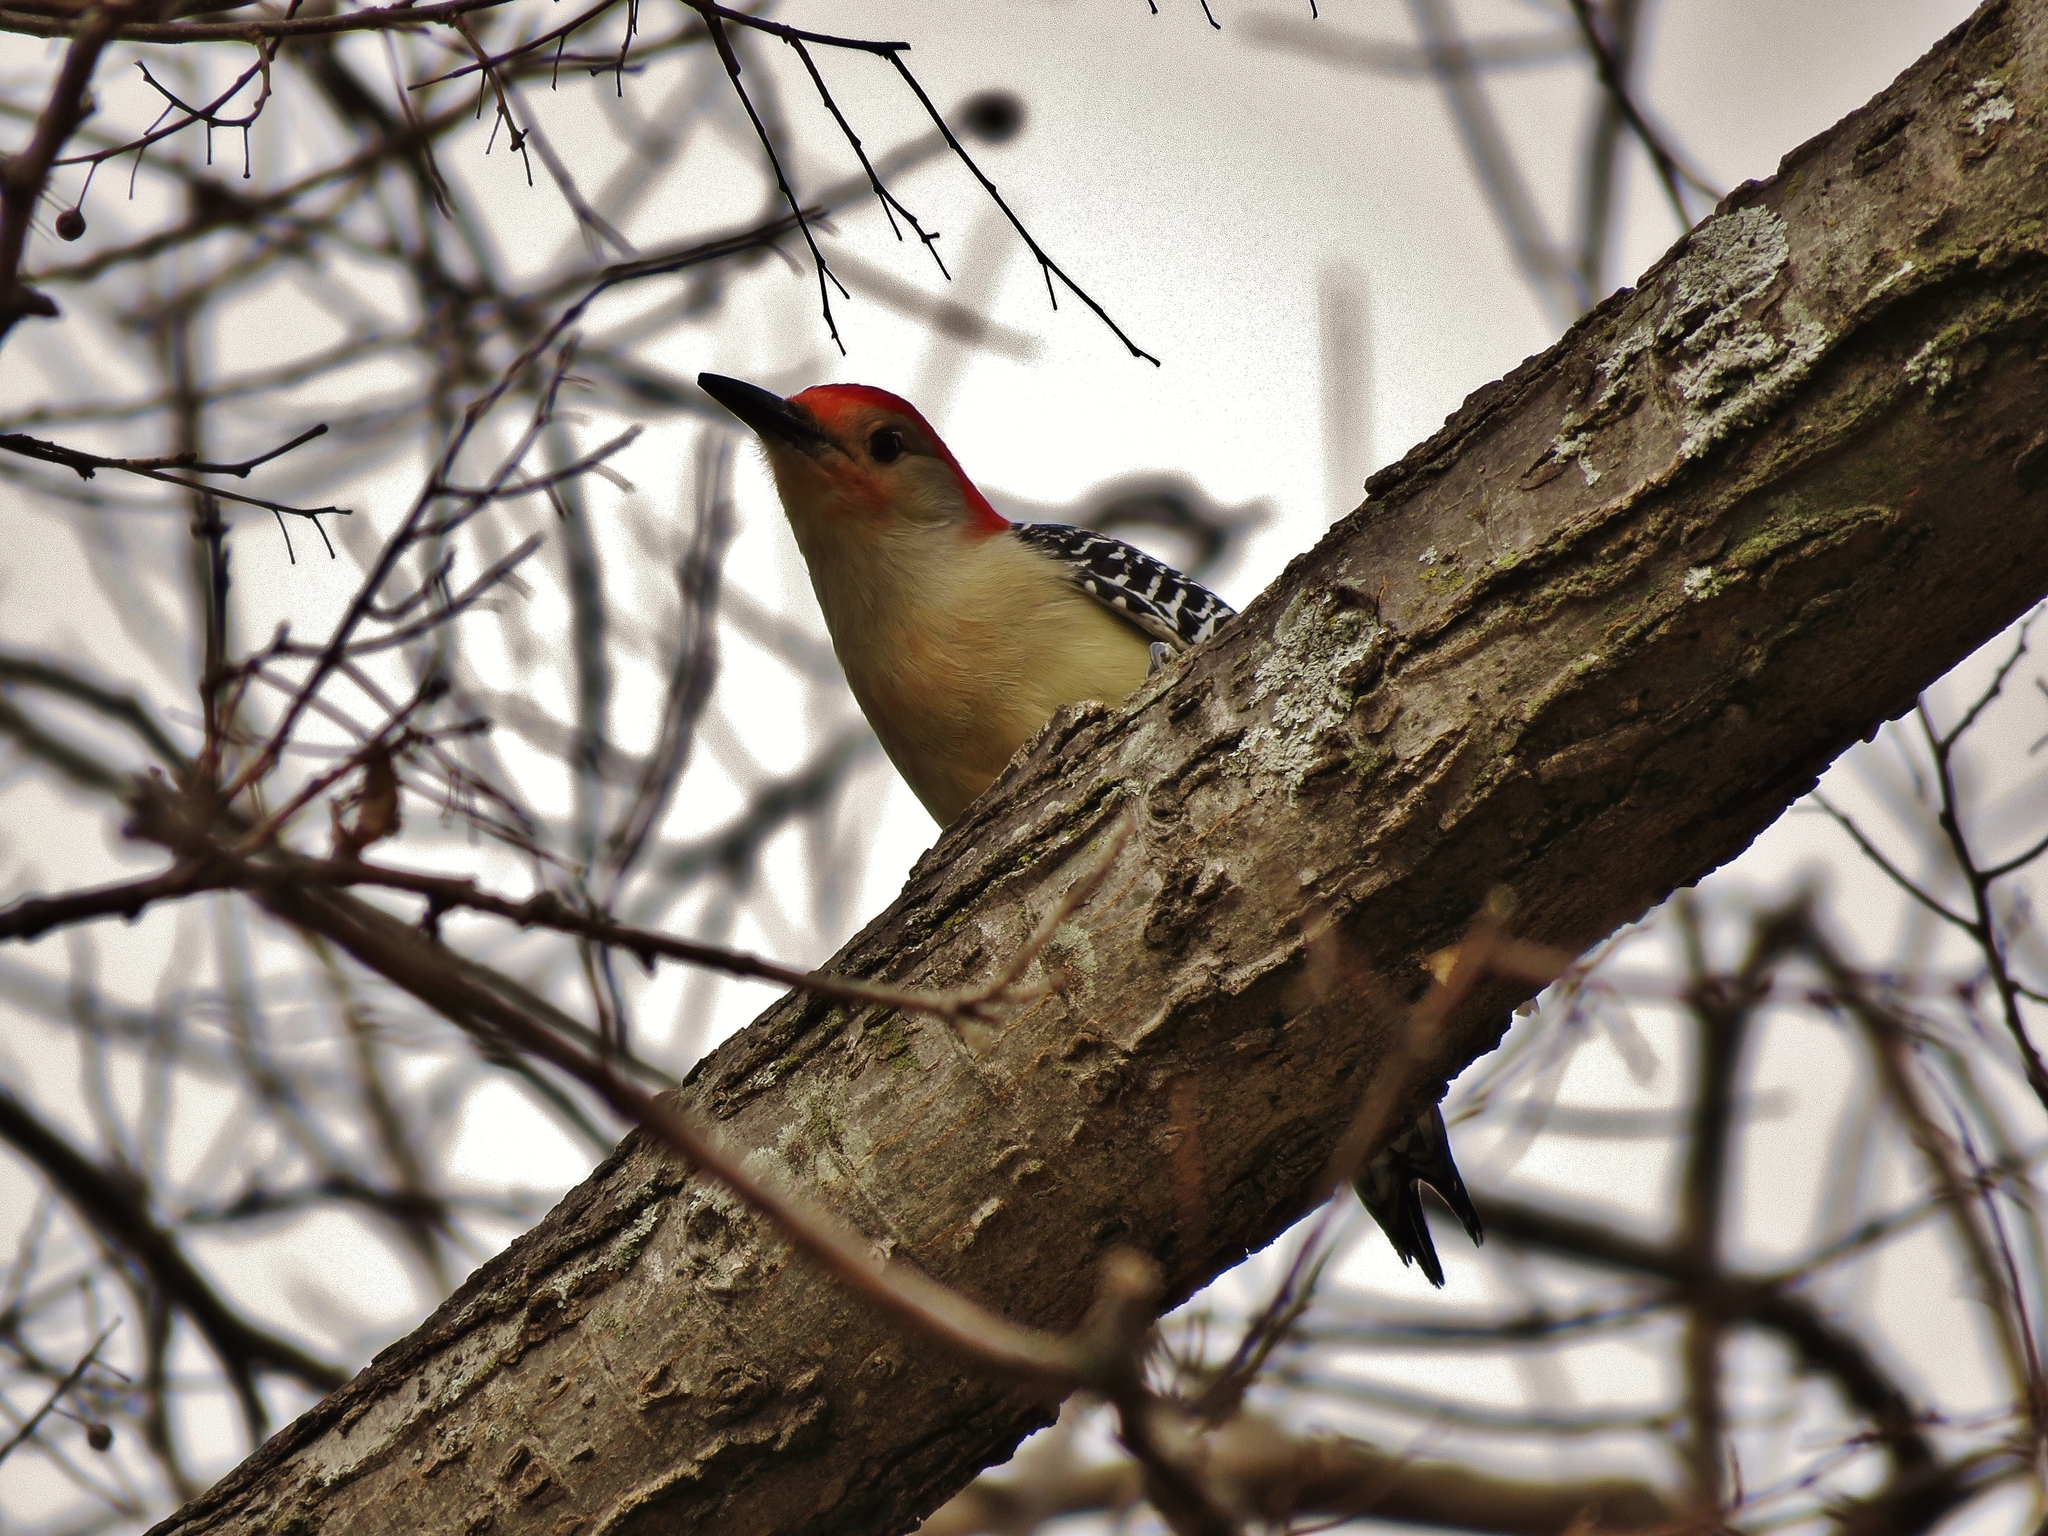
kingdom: Animalia
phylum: Chordata
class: Aves
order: Piciformes
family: Picidae
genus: Melanerpes
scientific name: Melanerpes carolinus
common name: Red-bellied woodpecker
